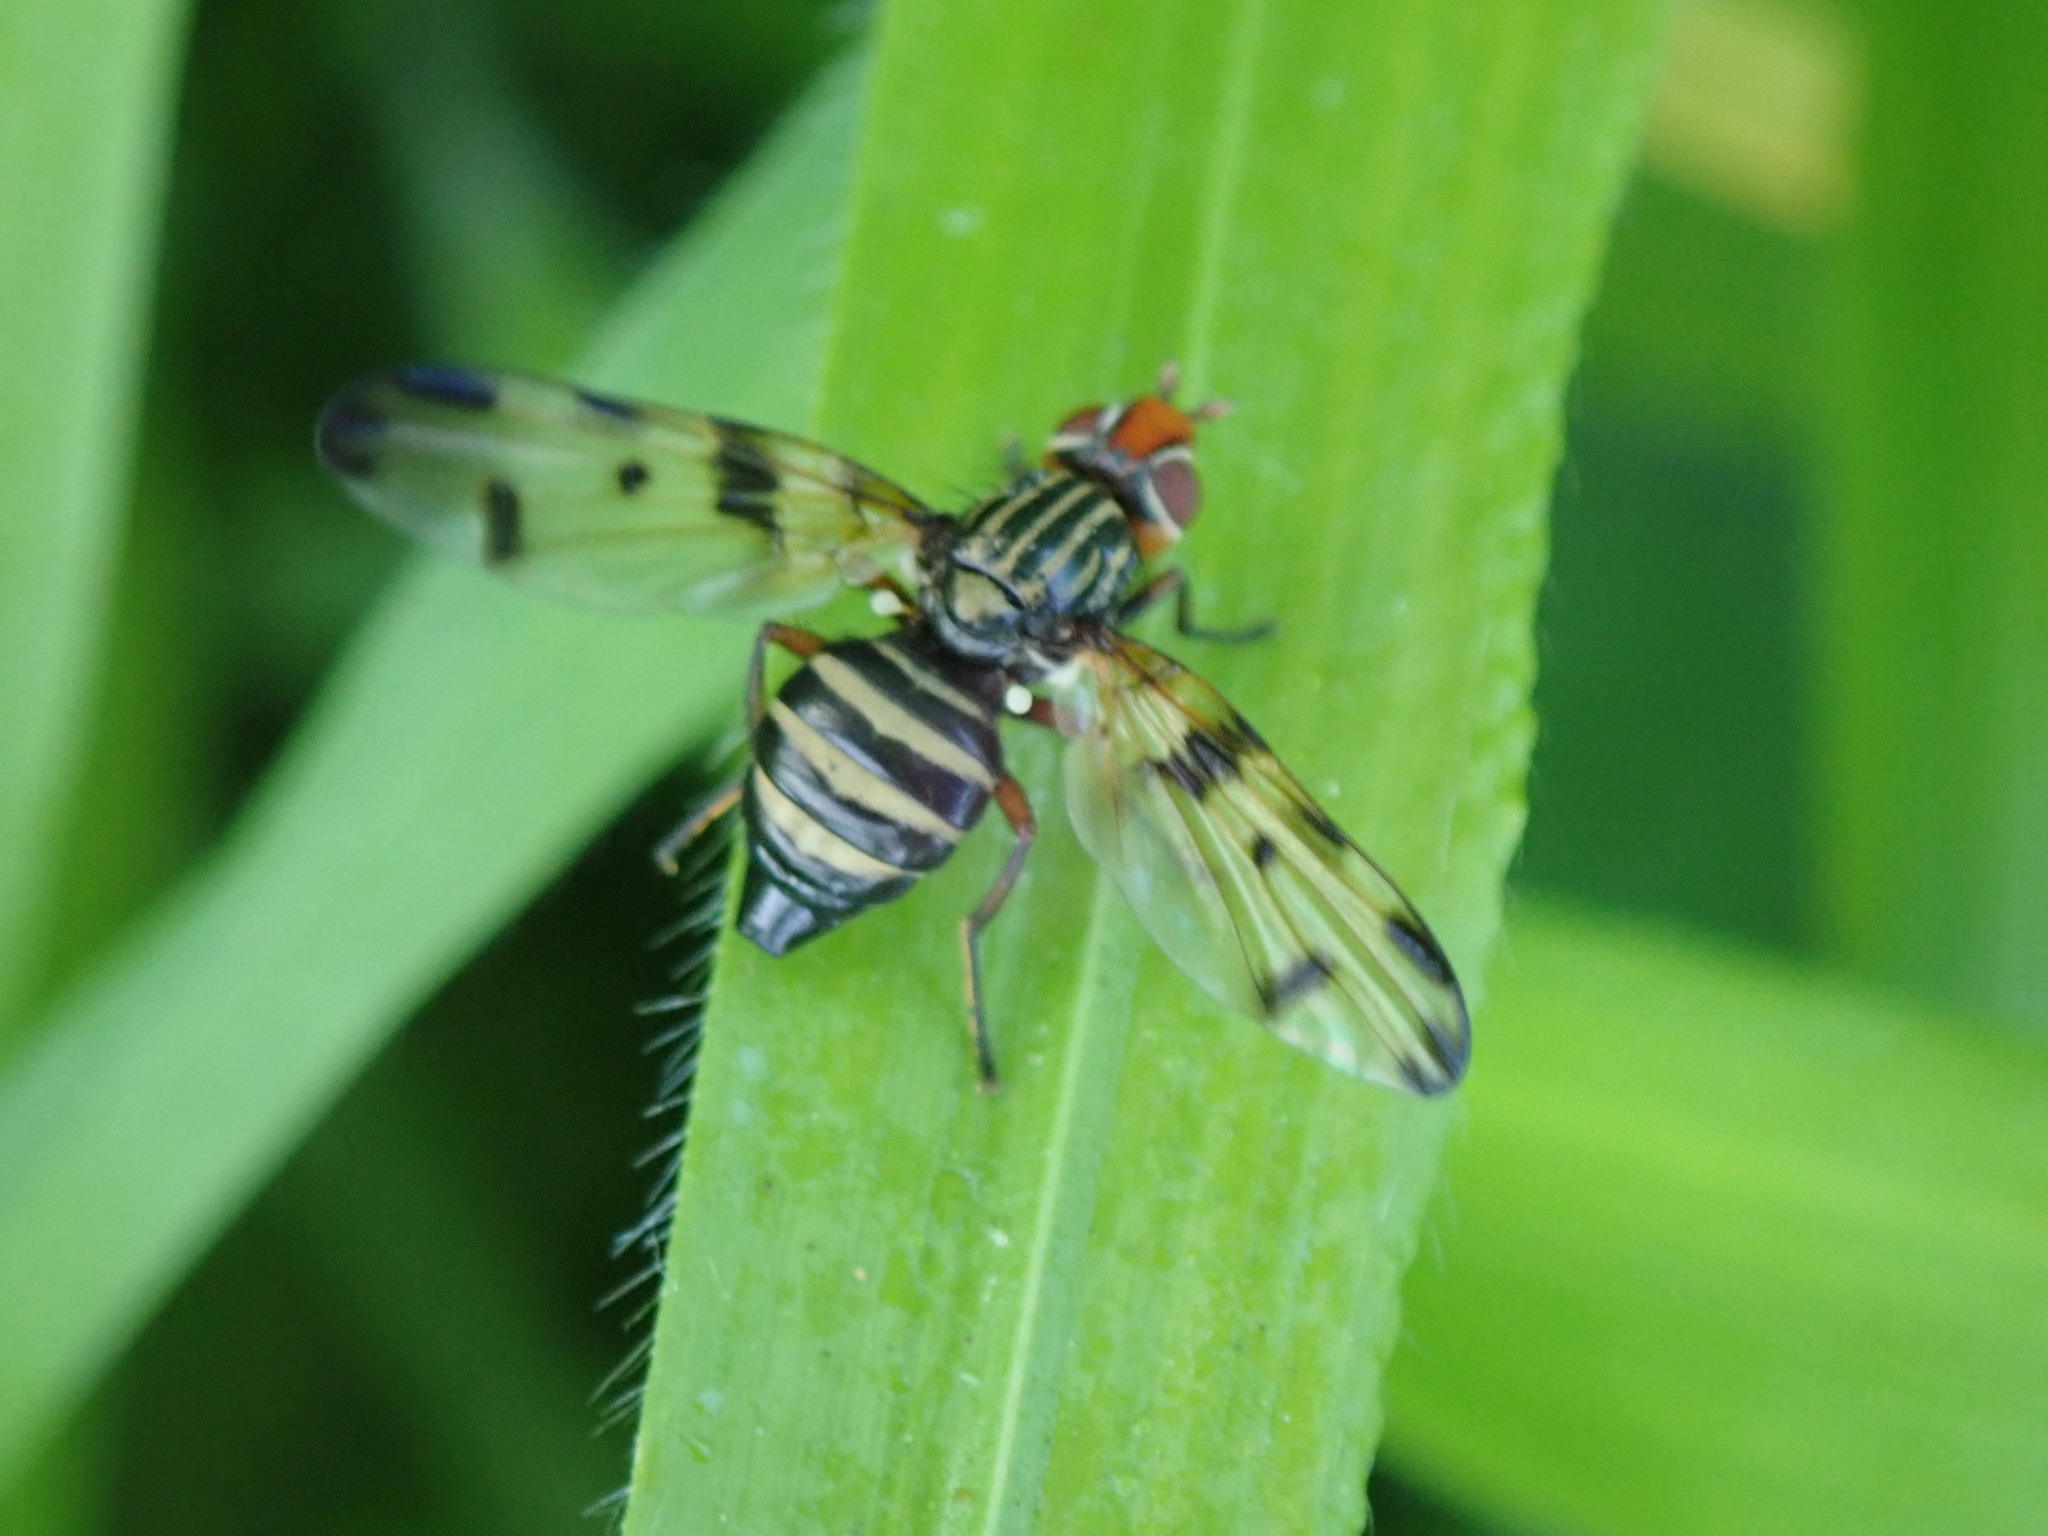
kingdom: Animalia
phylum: Arthropoda
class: Insecta
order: Diptera
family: Ulidiidae
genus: Otites
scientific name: Otites porcus
